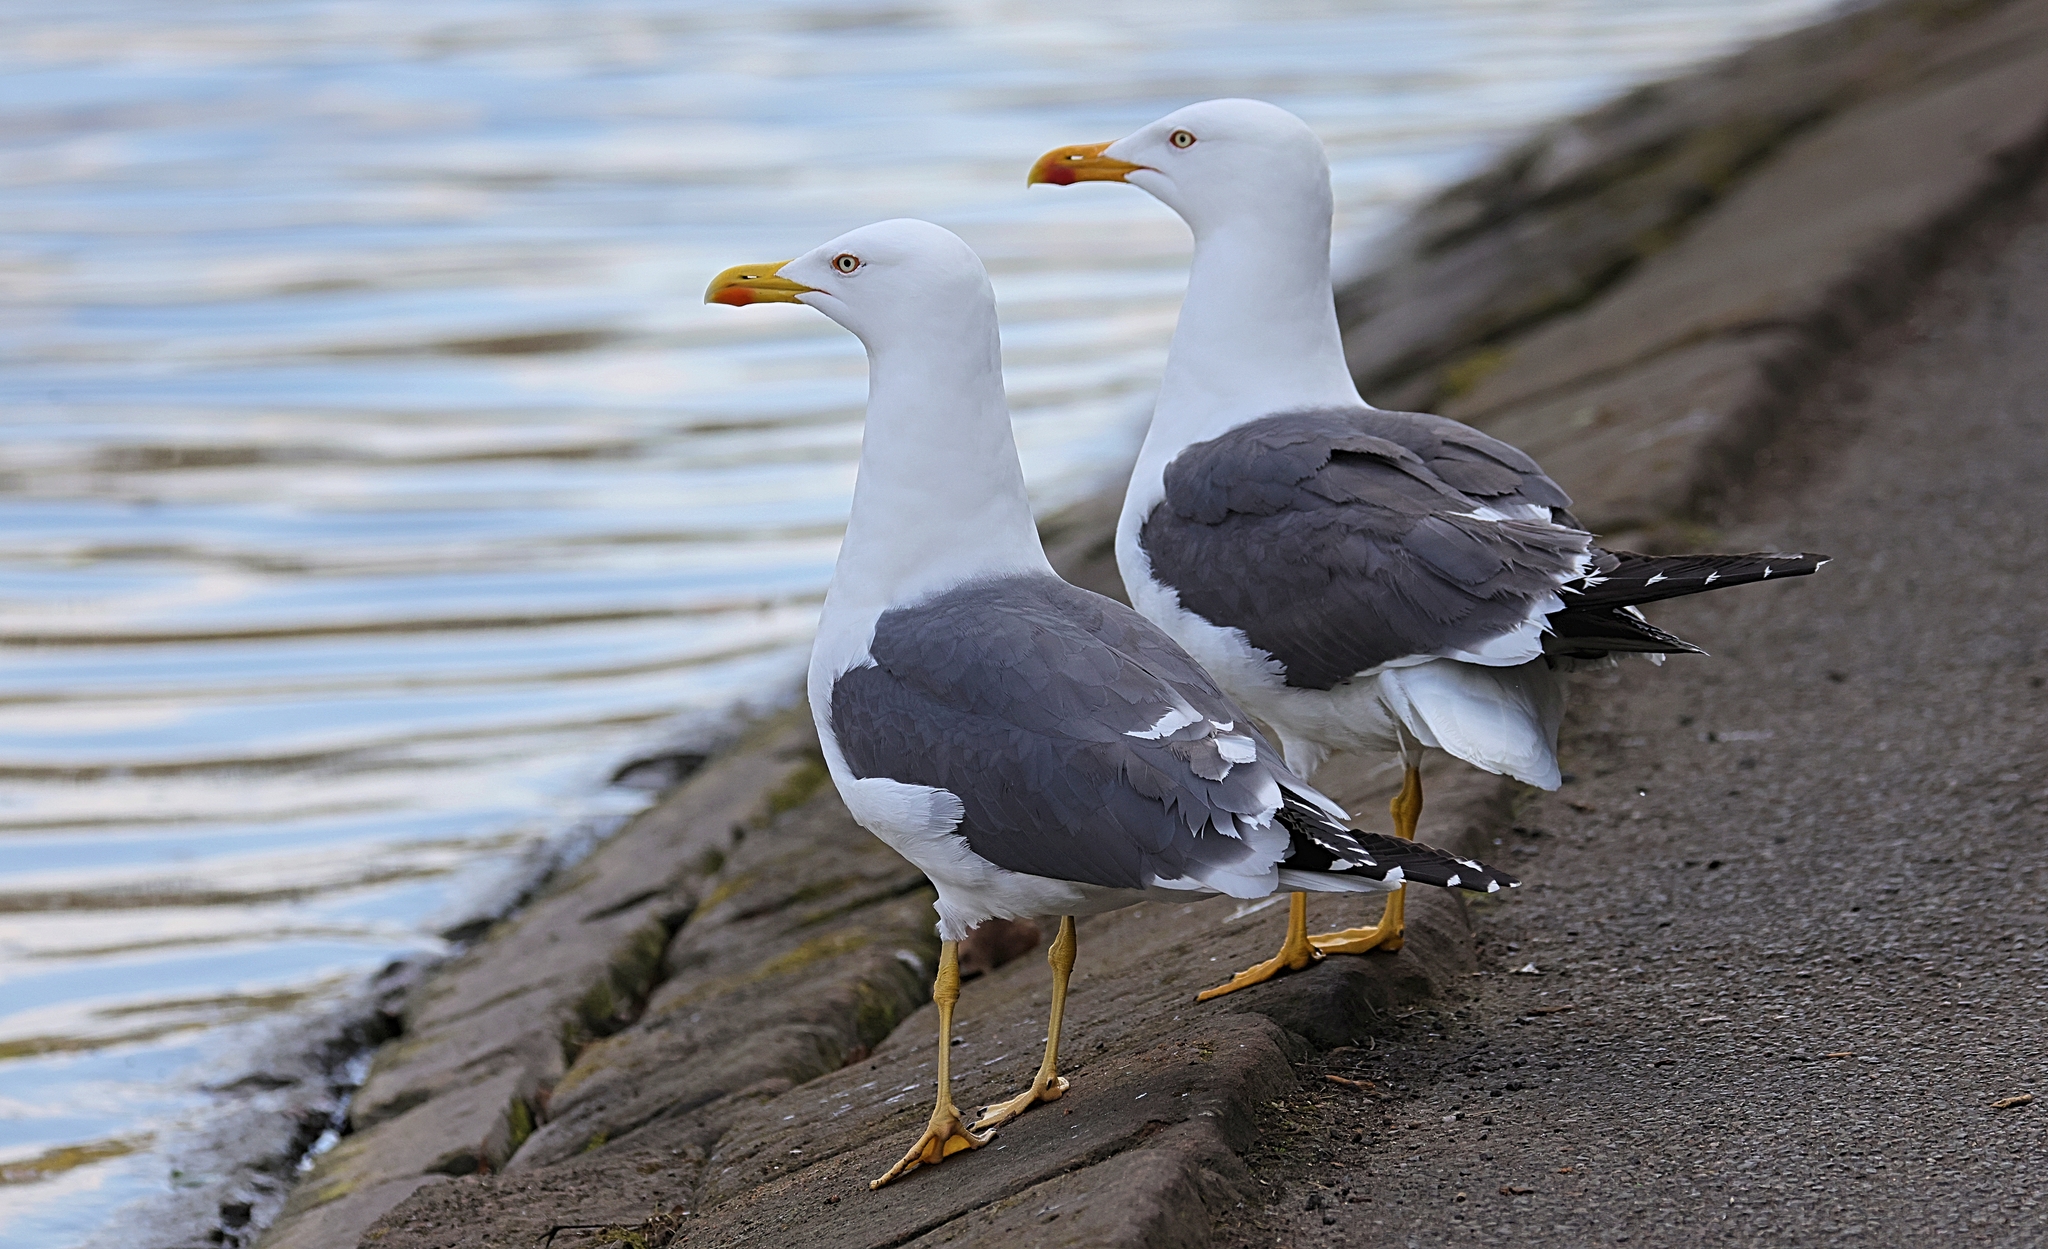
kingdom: Animalia
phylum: Chordata
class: Aves
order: Charadriiformes
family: Laridae
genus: Larus
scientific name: Larus fuscus
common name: Lesser black-backed gull
